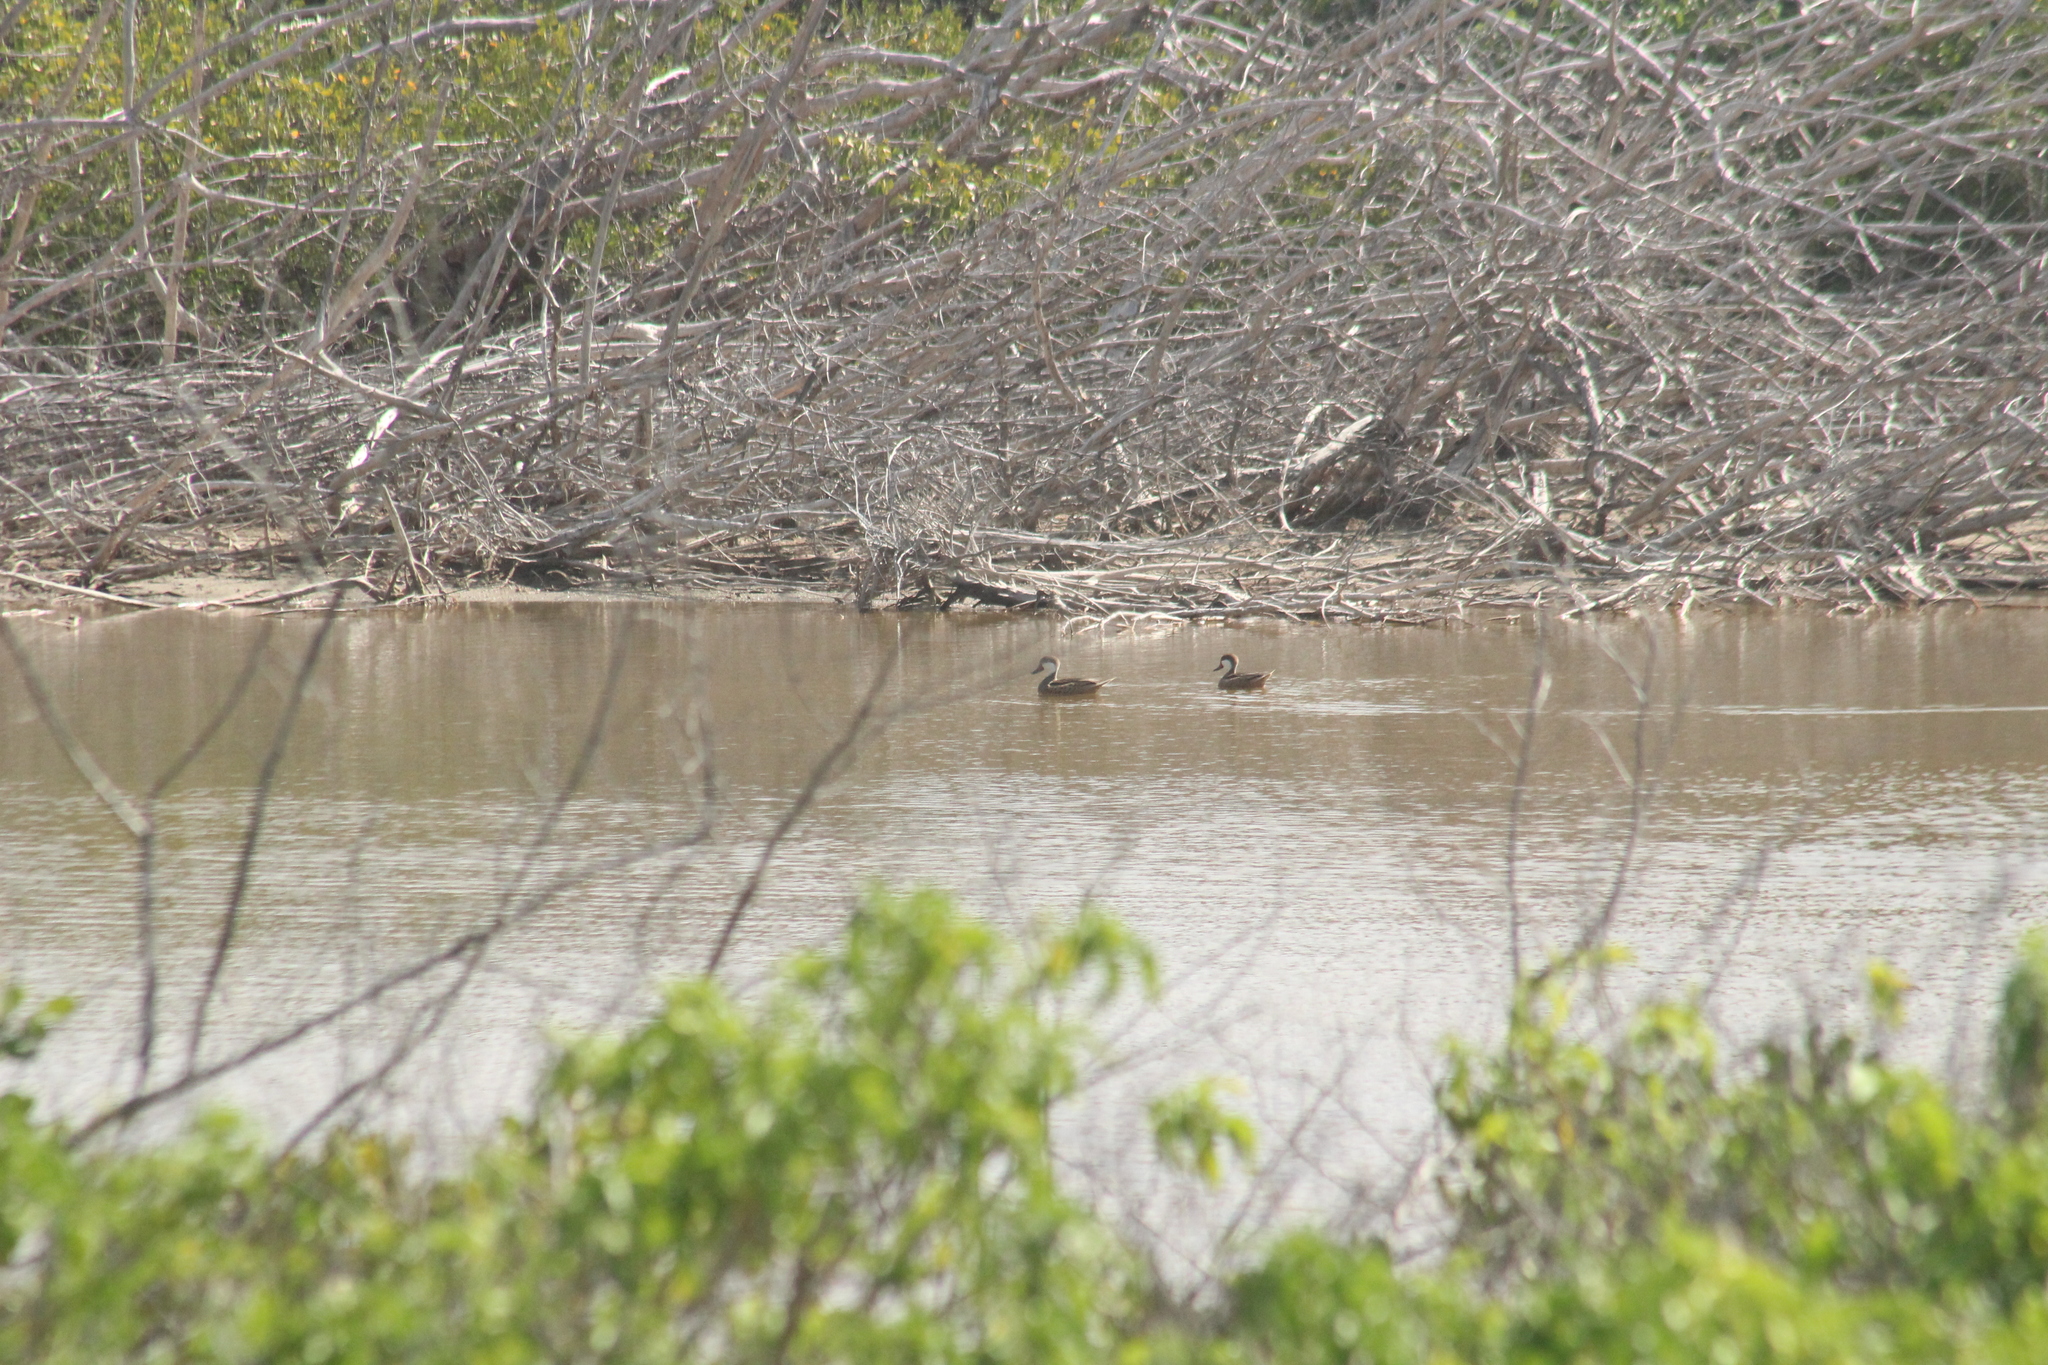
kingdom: Animalia
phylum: Chordata
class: Aves
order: Anseriformes
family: Anatidae
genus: Anas
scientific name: Anas bahamensis
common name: White-cheeked pintail
